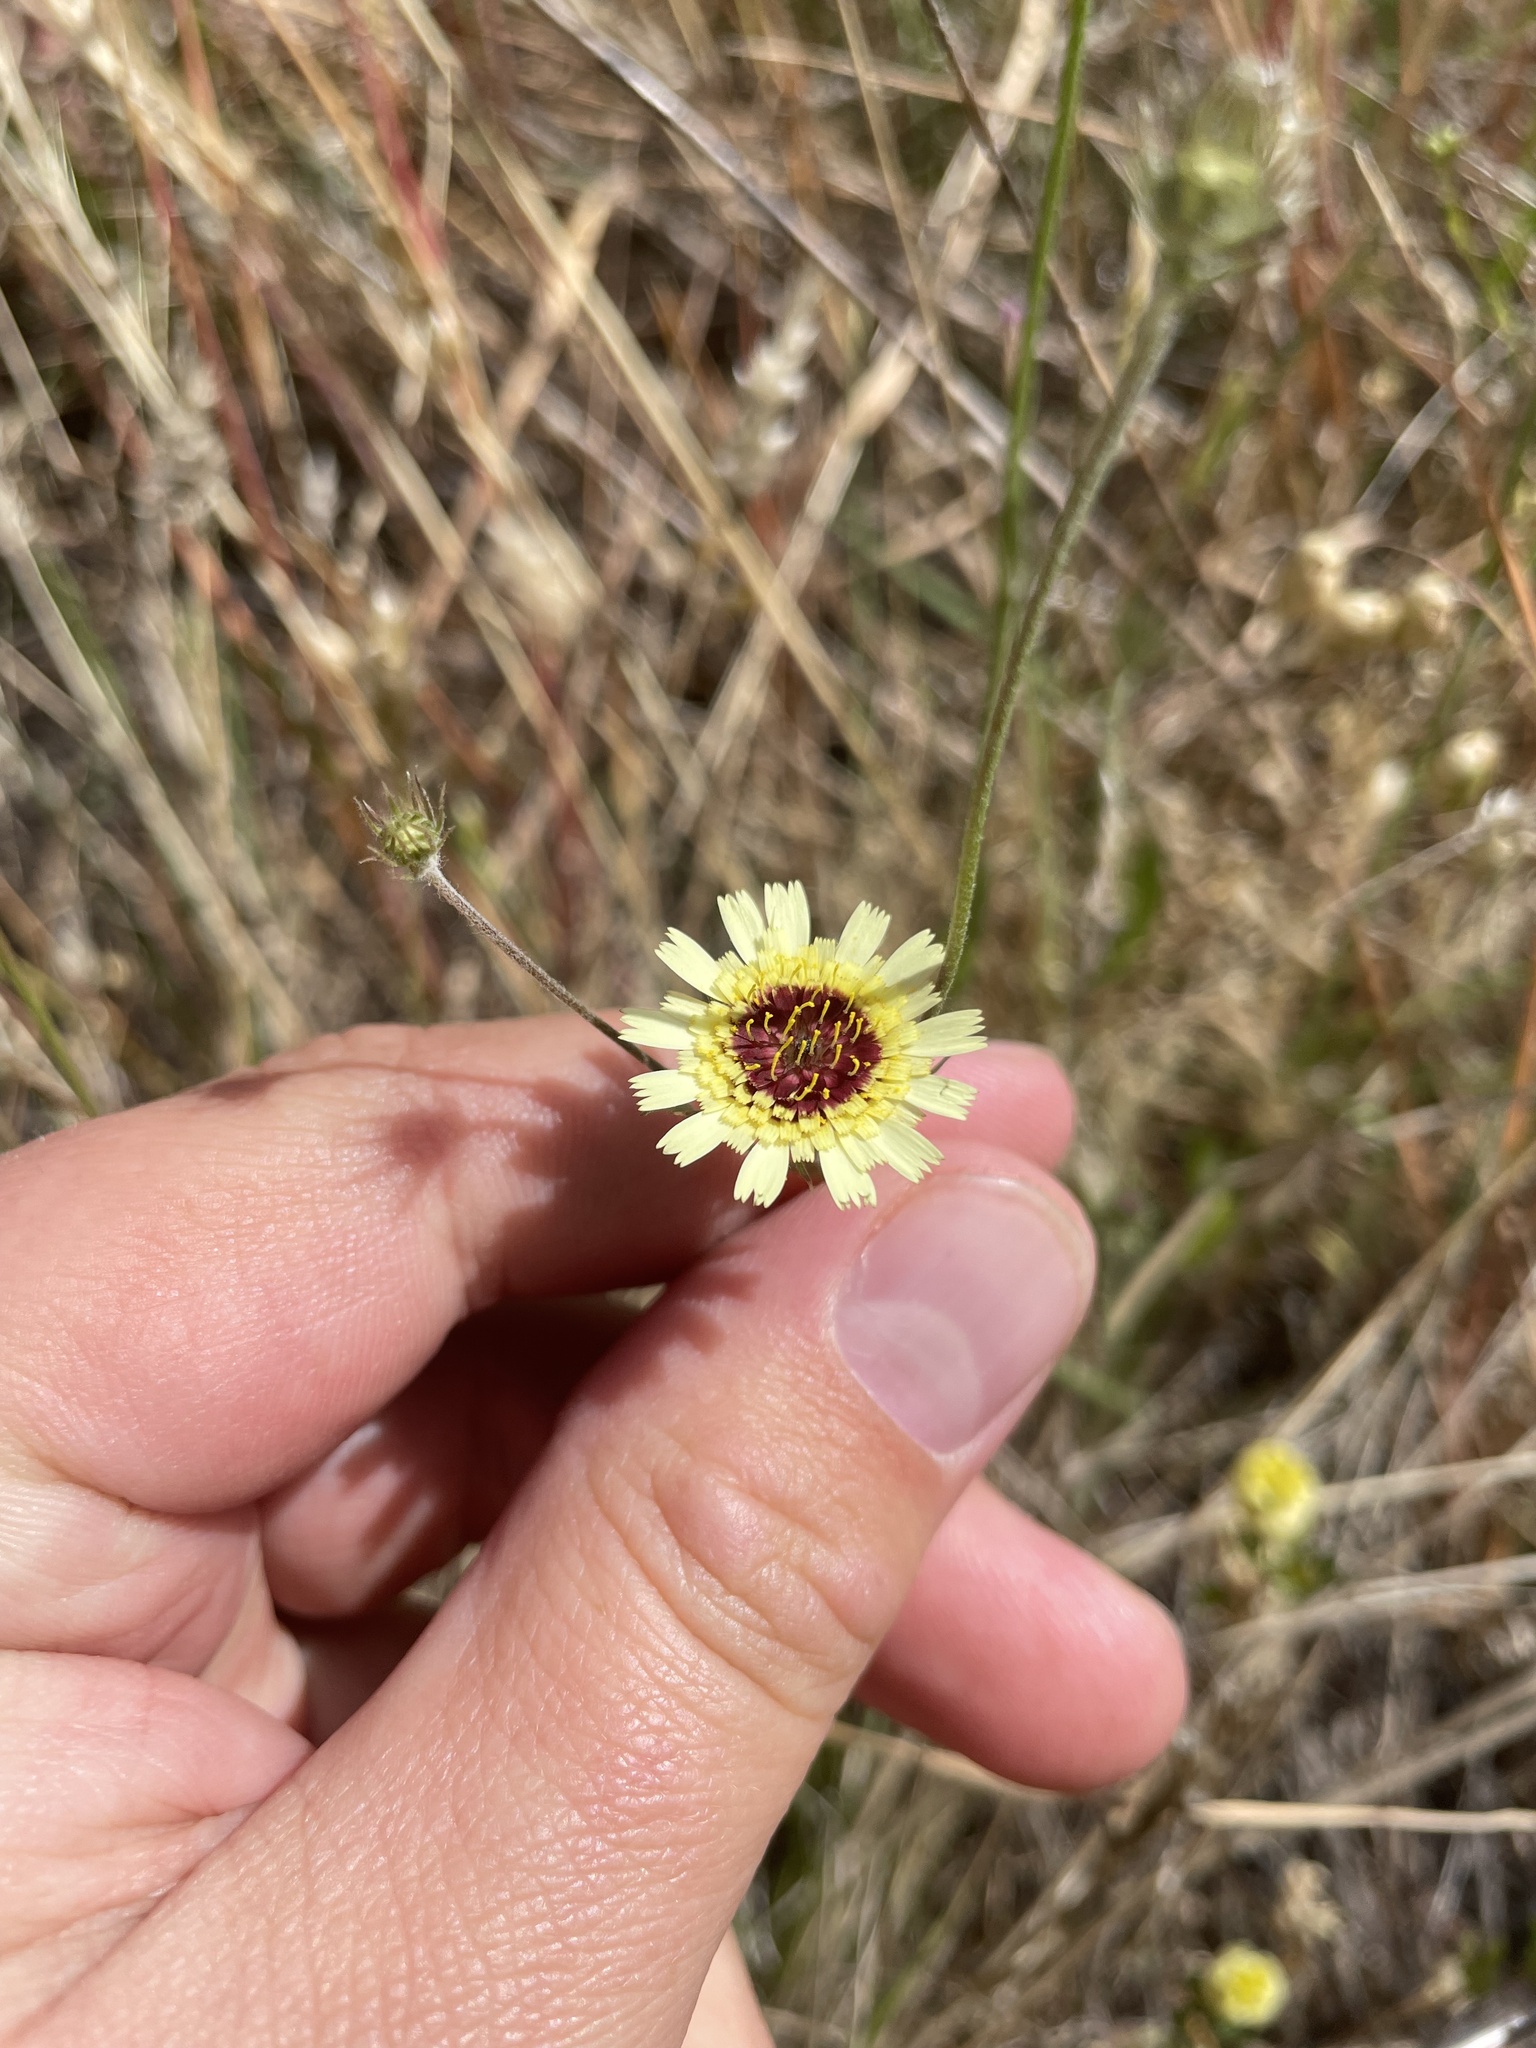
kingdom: Plantae
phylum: Tracheophyta
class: Magnoliopsida
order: Asterales
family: Asteraceae
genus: Tolpis
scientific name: Tolpis barbata
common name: Yellow hawkweed
